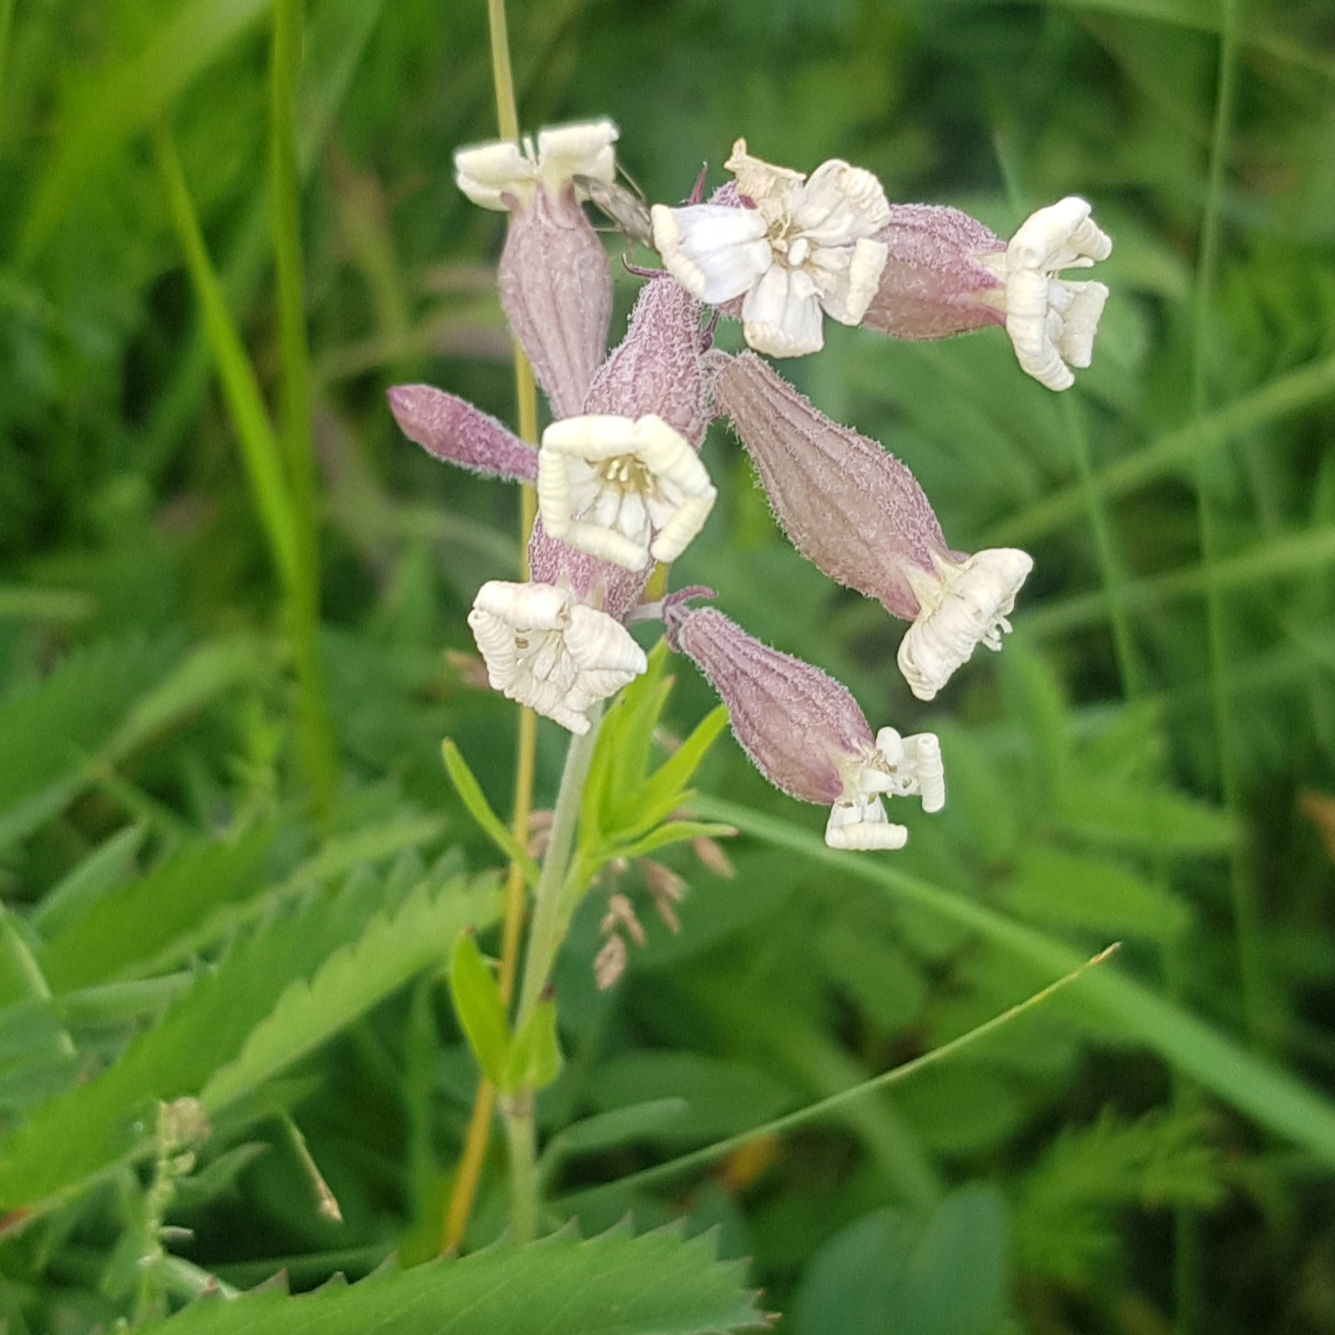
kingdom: Plantae
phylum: Tracheophyta
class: Magnoliopsida
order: Caryophyllales
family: Caryophyllaceae
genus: Silene
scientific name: Silene amoena
